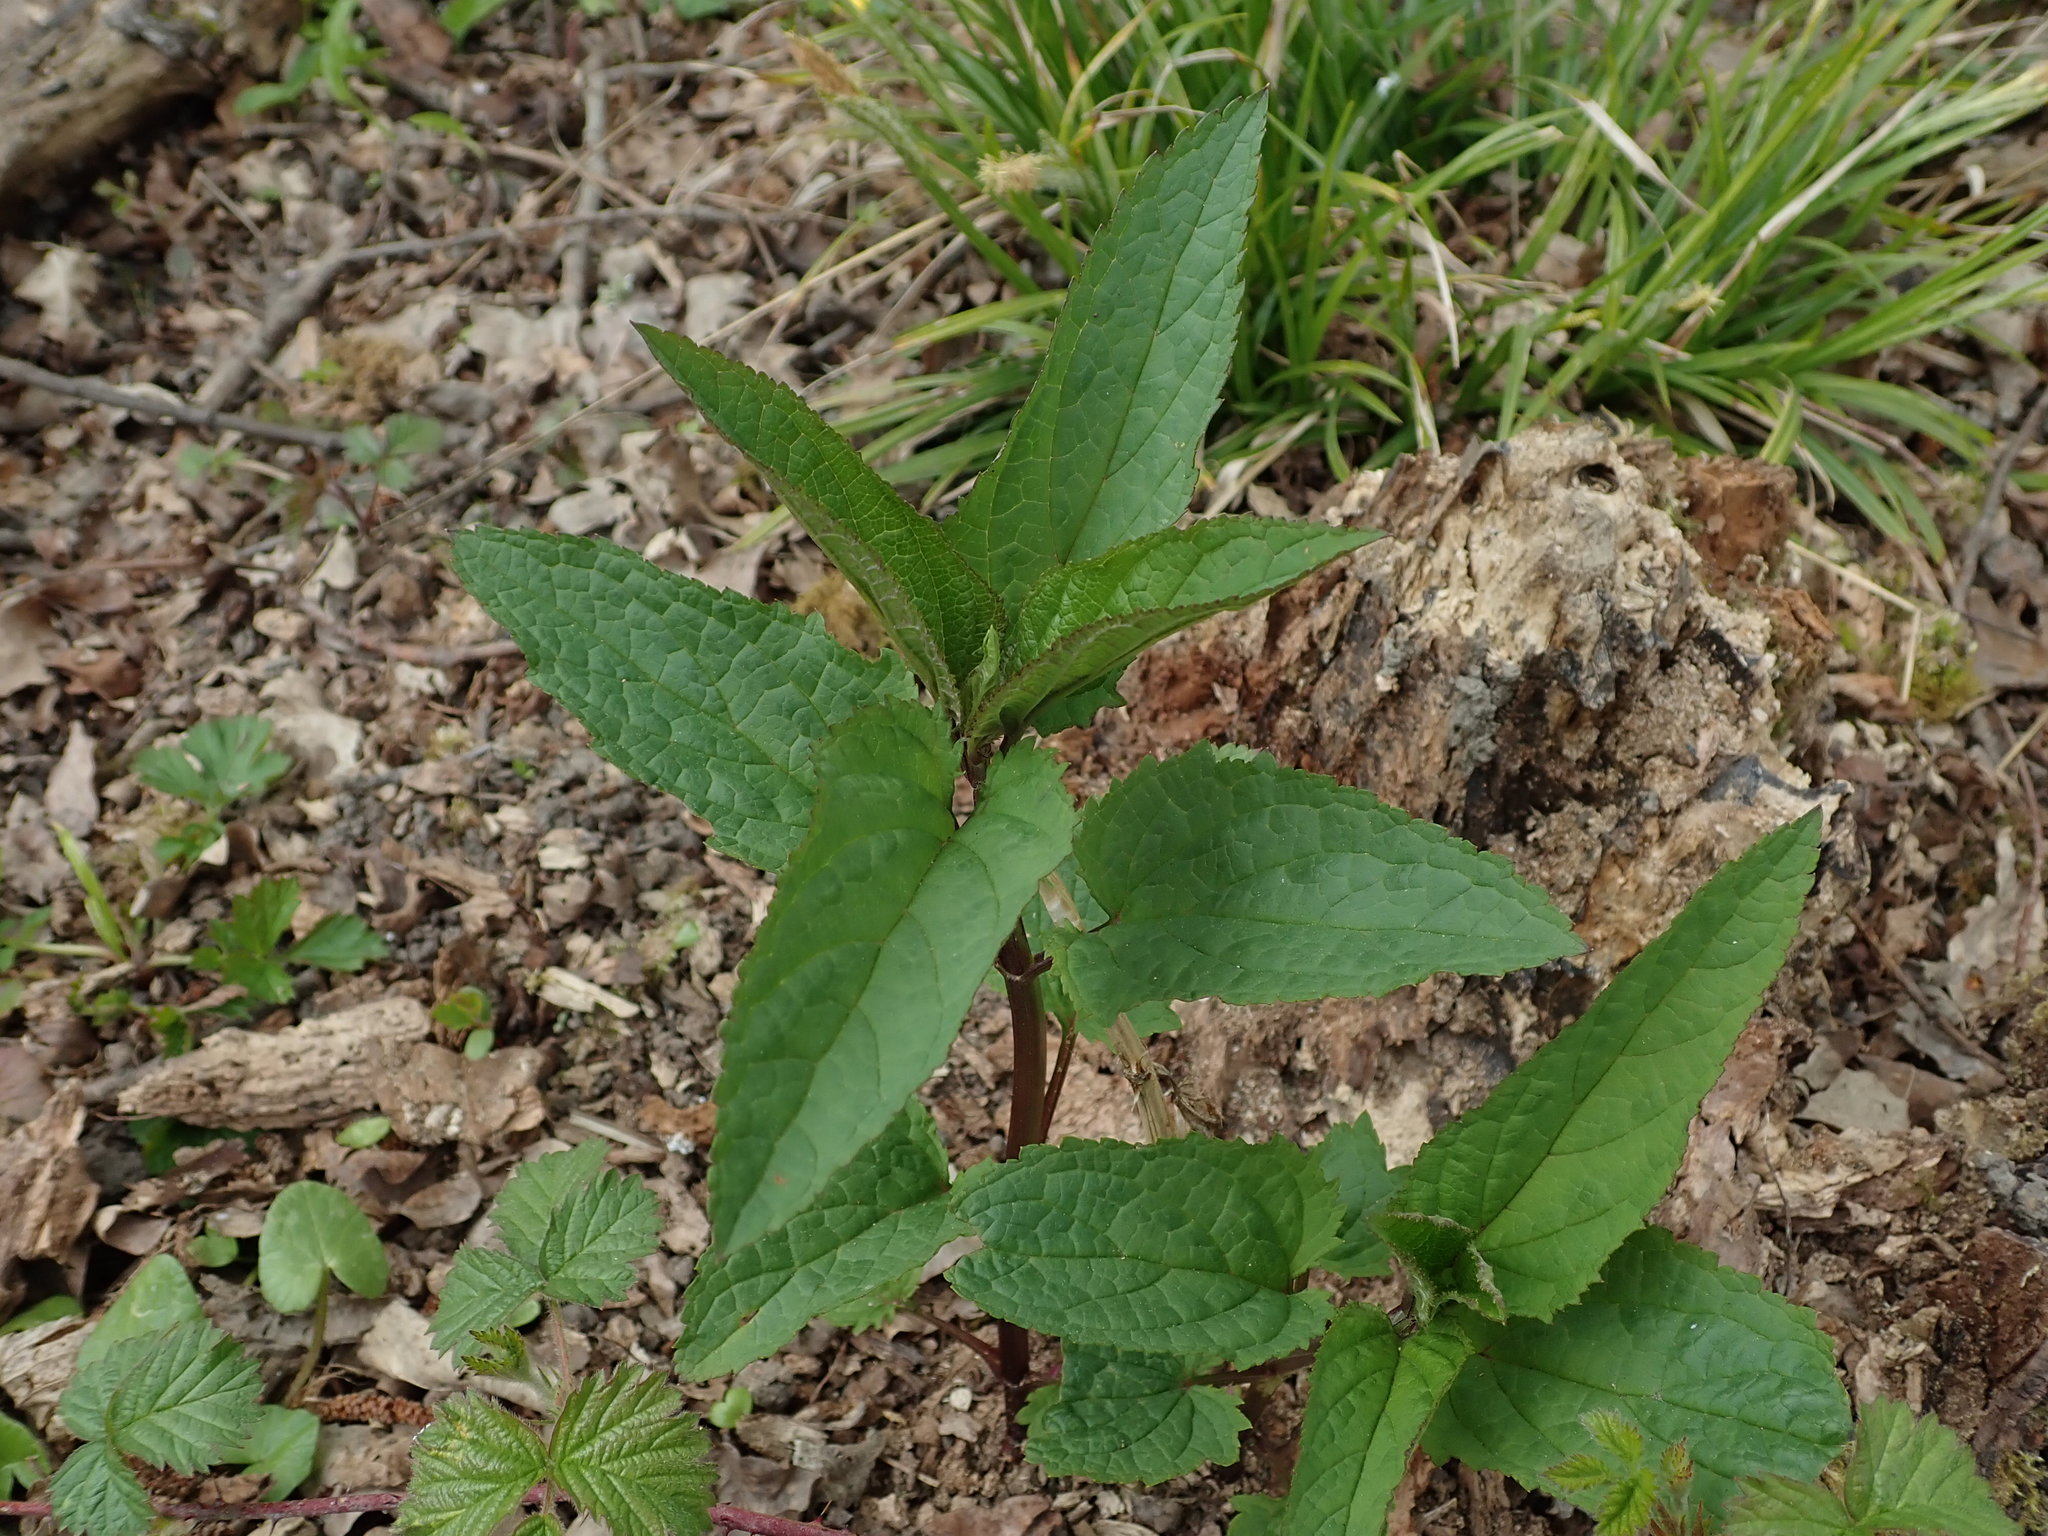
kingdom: Plantae
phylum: Tracheophyta
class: Magnoliopsida
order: Lamiales
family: Scrophulariaceae
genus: Scrophularia
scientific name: Scrophularia nodosa
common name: Common figwort
